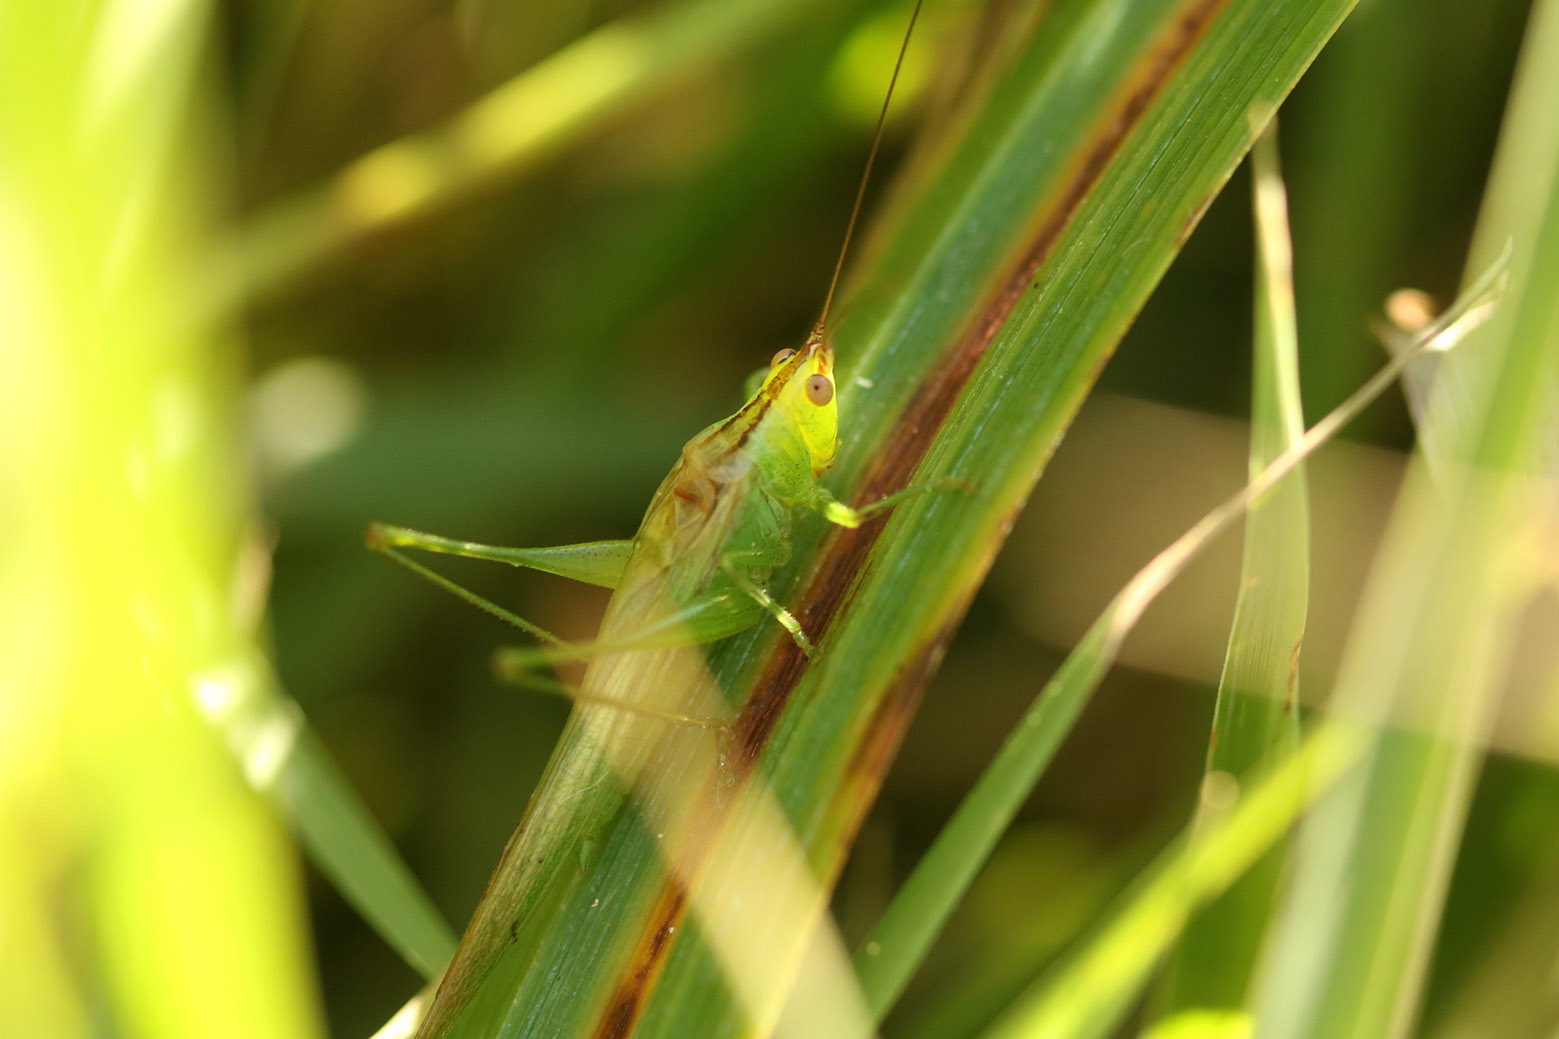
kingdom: Animalia
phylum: Arthropoda
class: Insecta
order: Orthoptera
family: Tettigoniidae
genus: Conocephalus
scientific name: Conocephalus longipes
